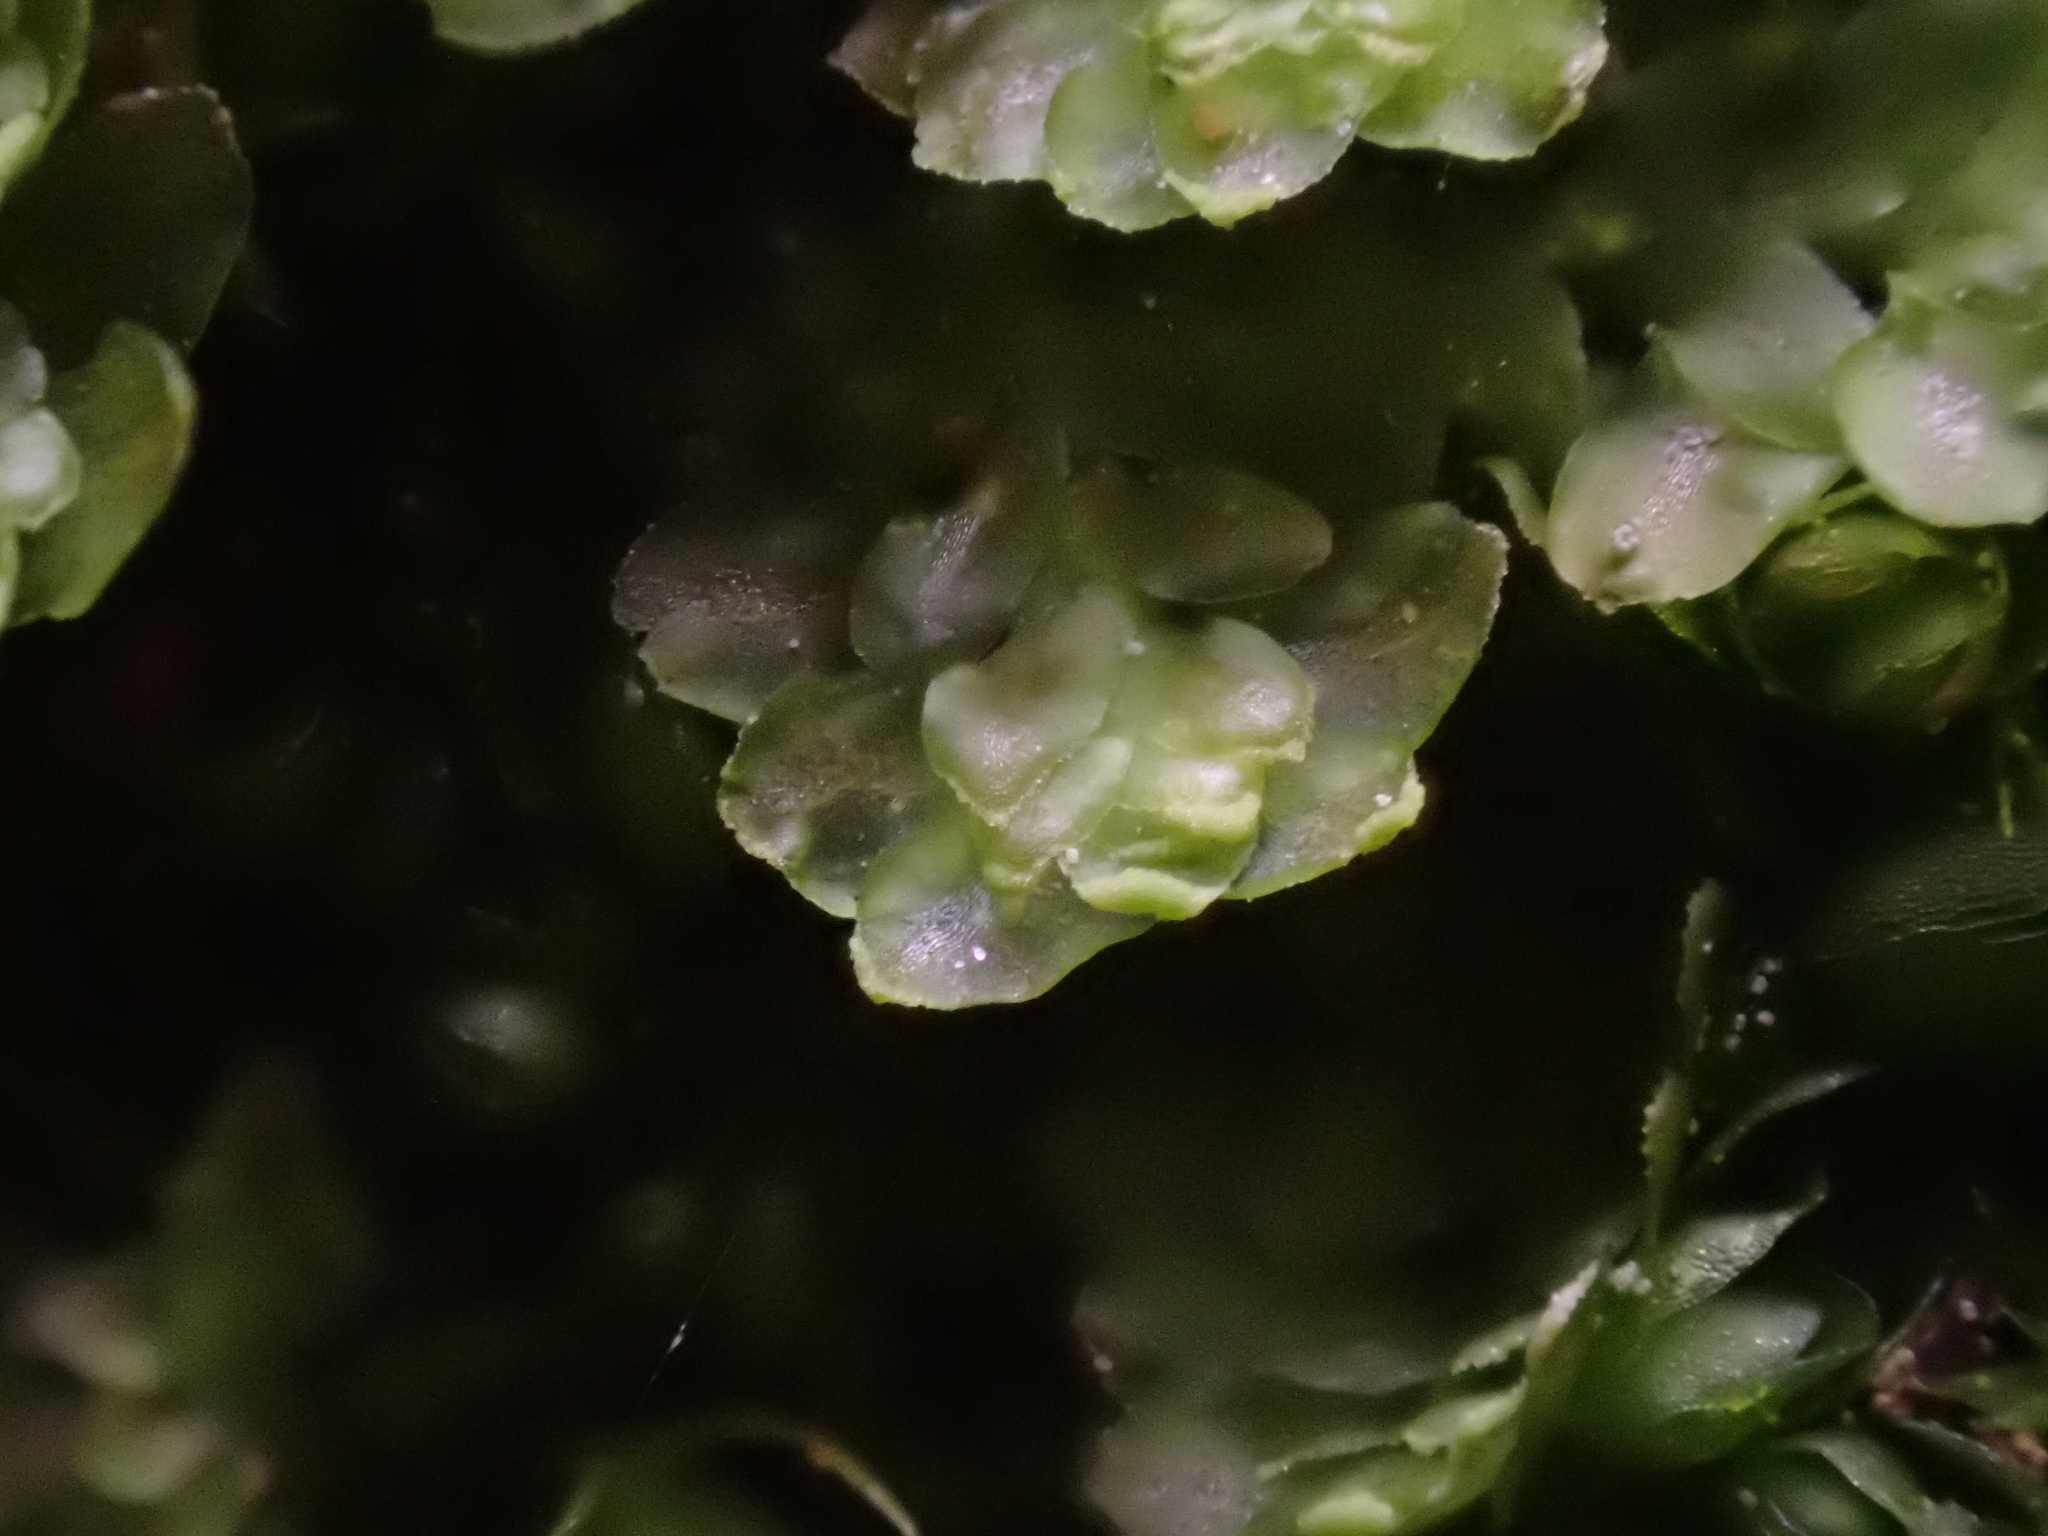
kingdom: Plantae
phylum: Marchantiophyta
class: Jungermanniopsida
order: Jungermanniales
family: Scapaniaceae
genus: Diplophyllum
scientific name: Diplophyllum albicans
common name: White earwort
